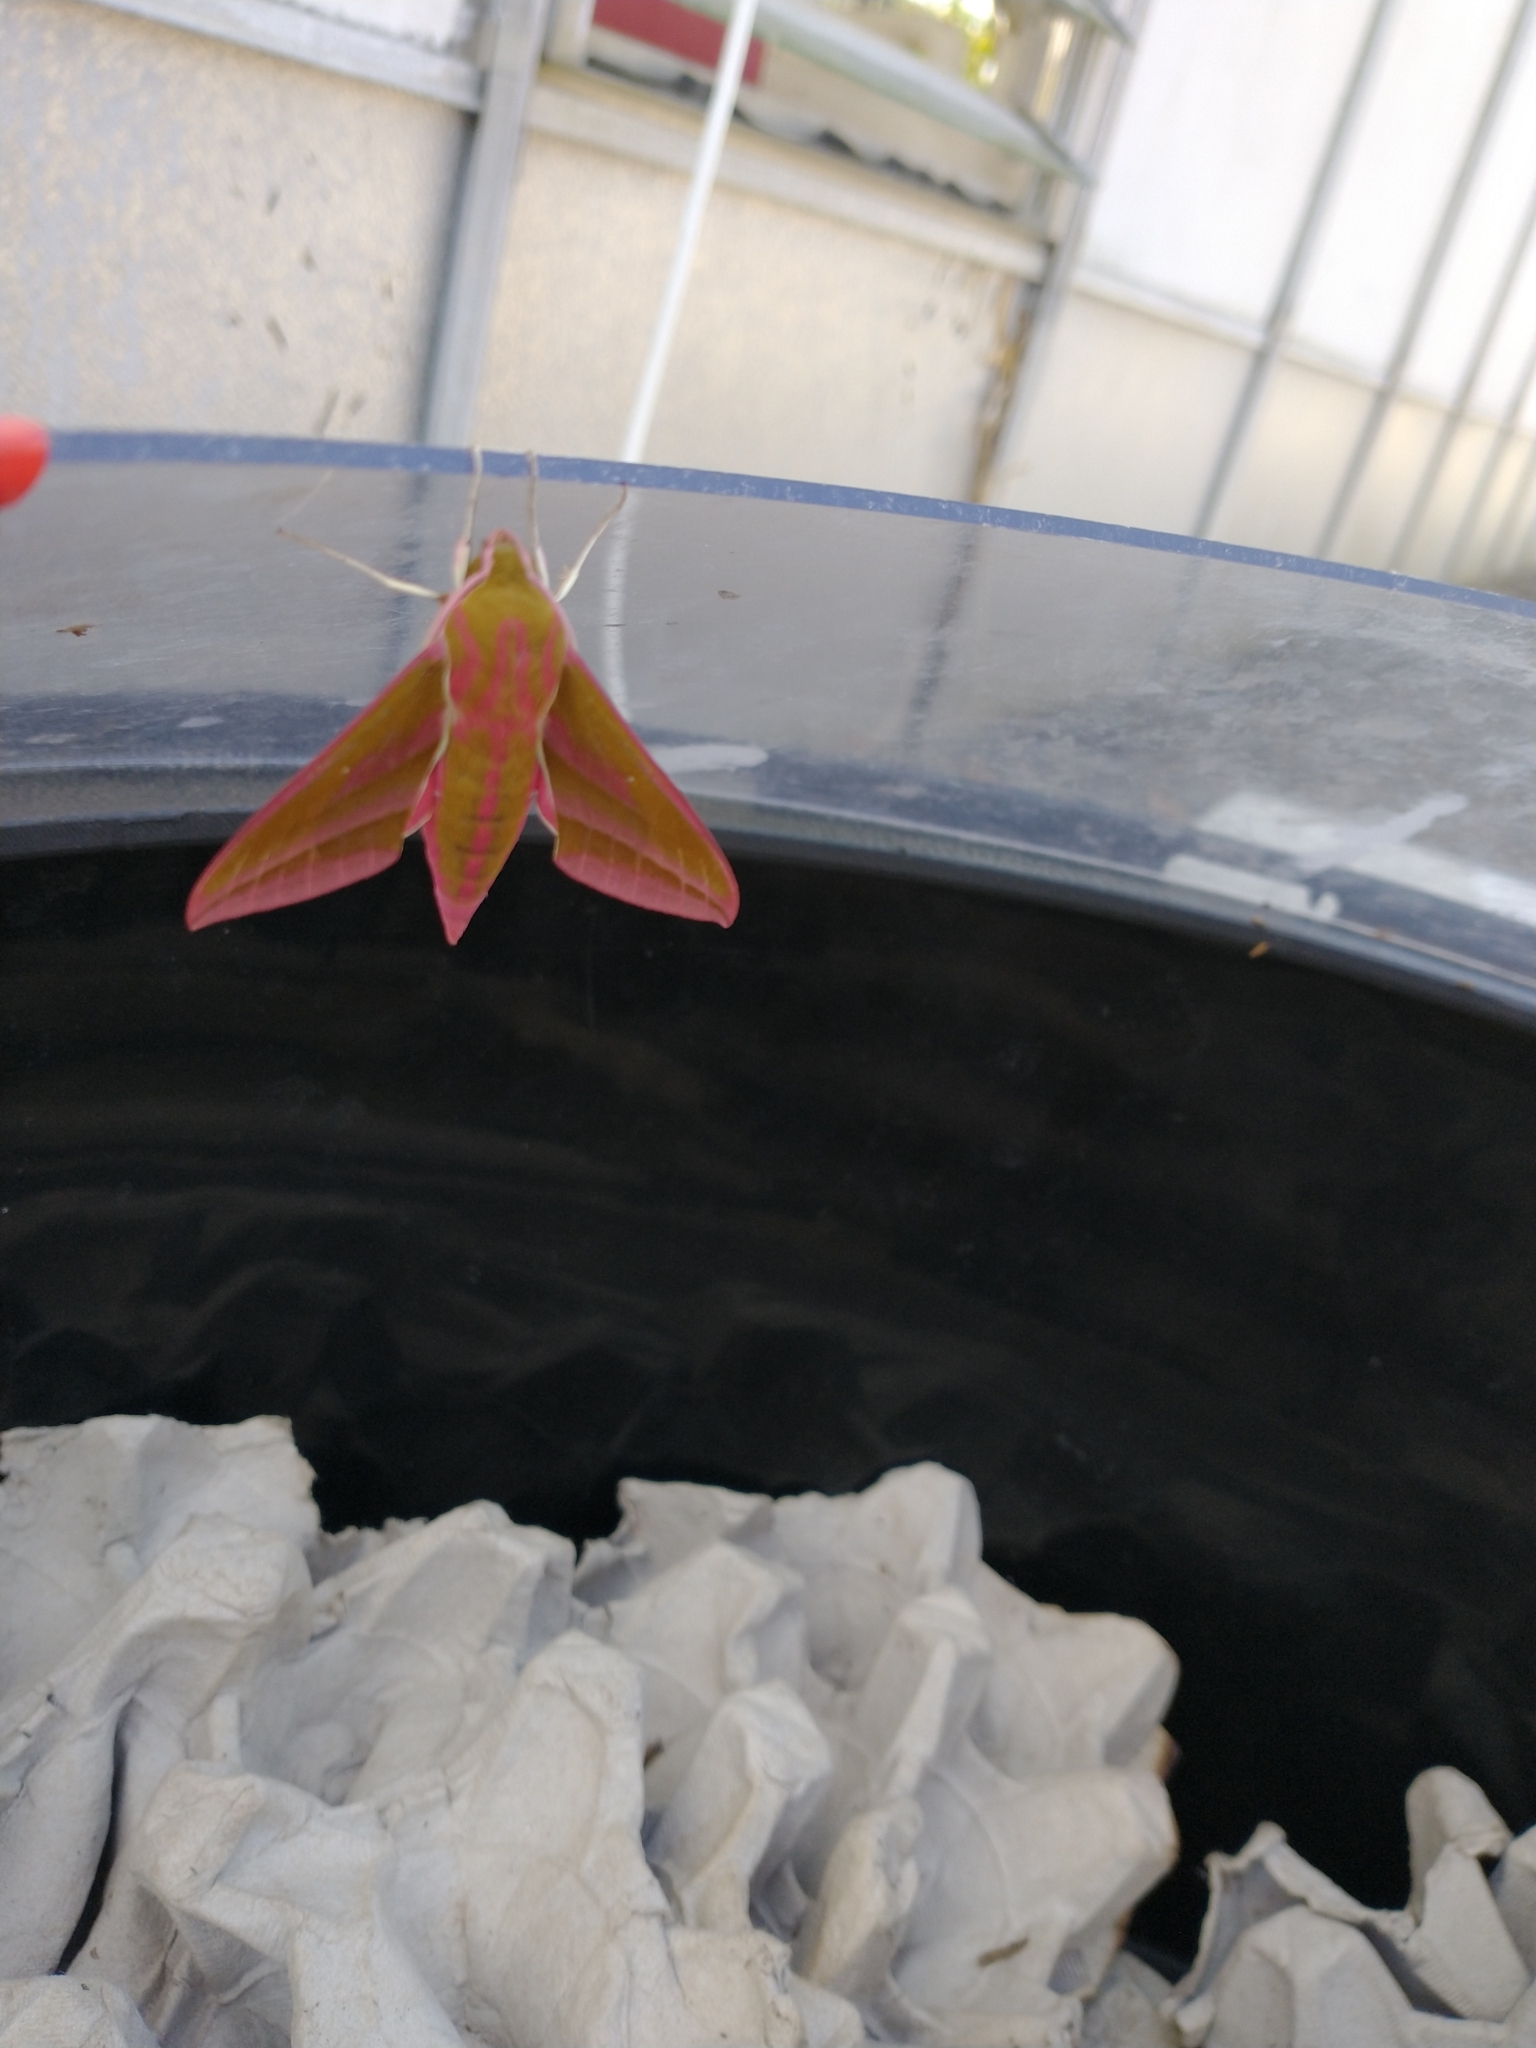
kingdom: Animalia
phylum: Arthropoda
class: Insecta
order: Lepidoptera
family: Sphingidae
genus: Deilephila
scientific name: Deilephila elpenor
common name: Elephant hawk-moth
